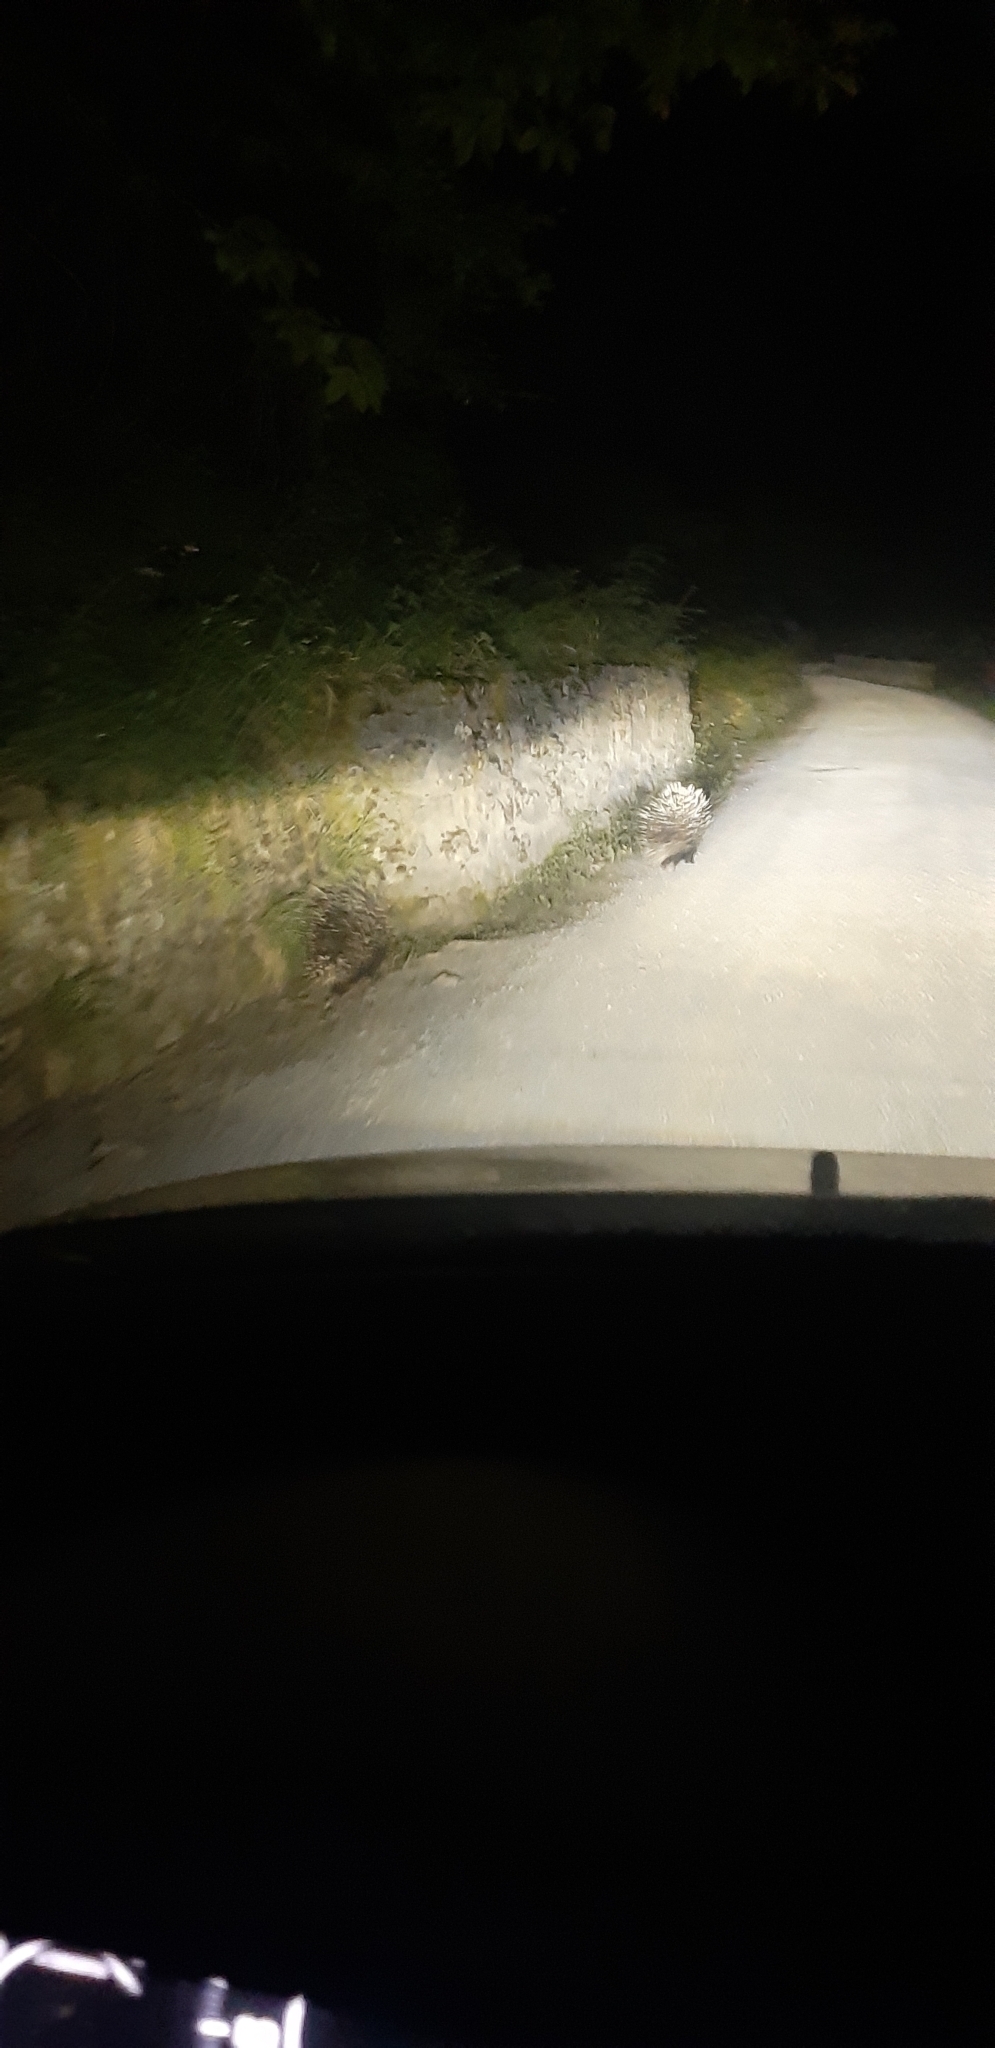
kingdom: Animalia
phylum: Chordata
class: Mammalia
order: Rodentia
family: Hystricidae
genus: Hystrix
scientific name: Hystrix cristata
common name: Crested porcupine
